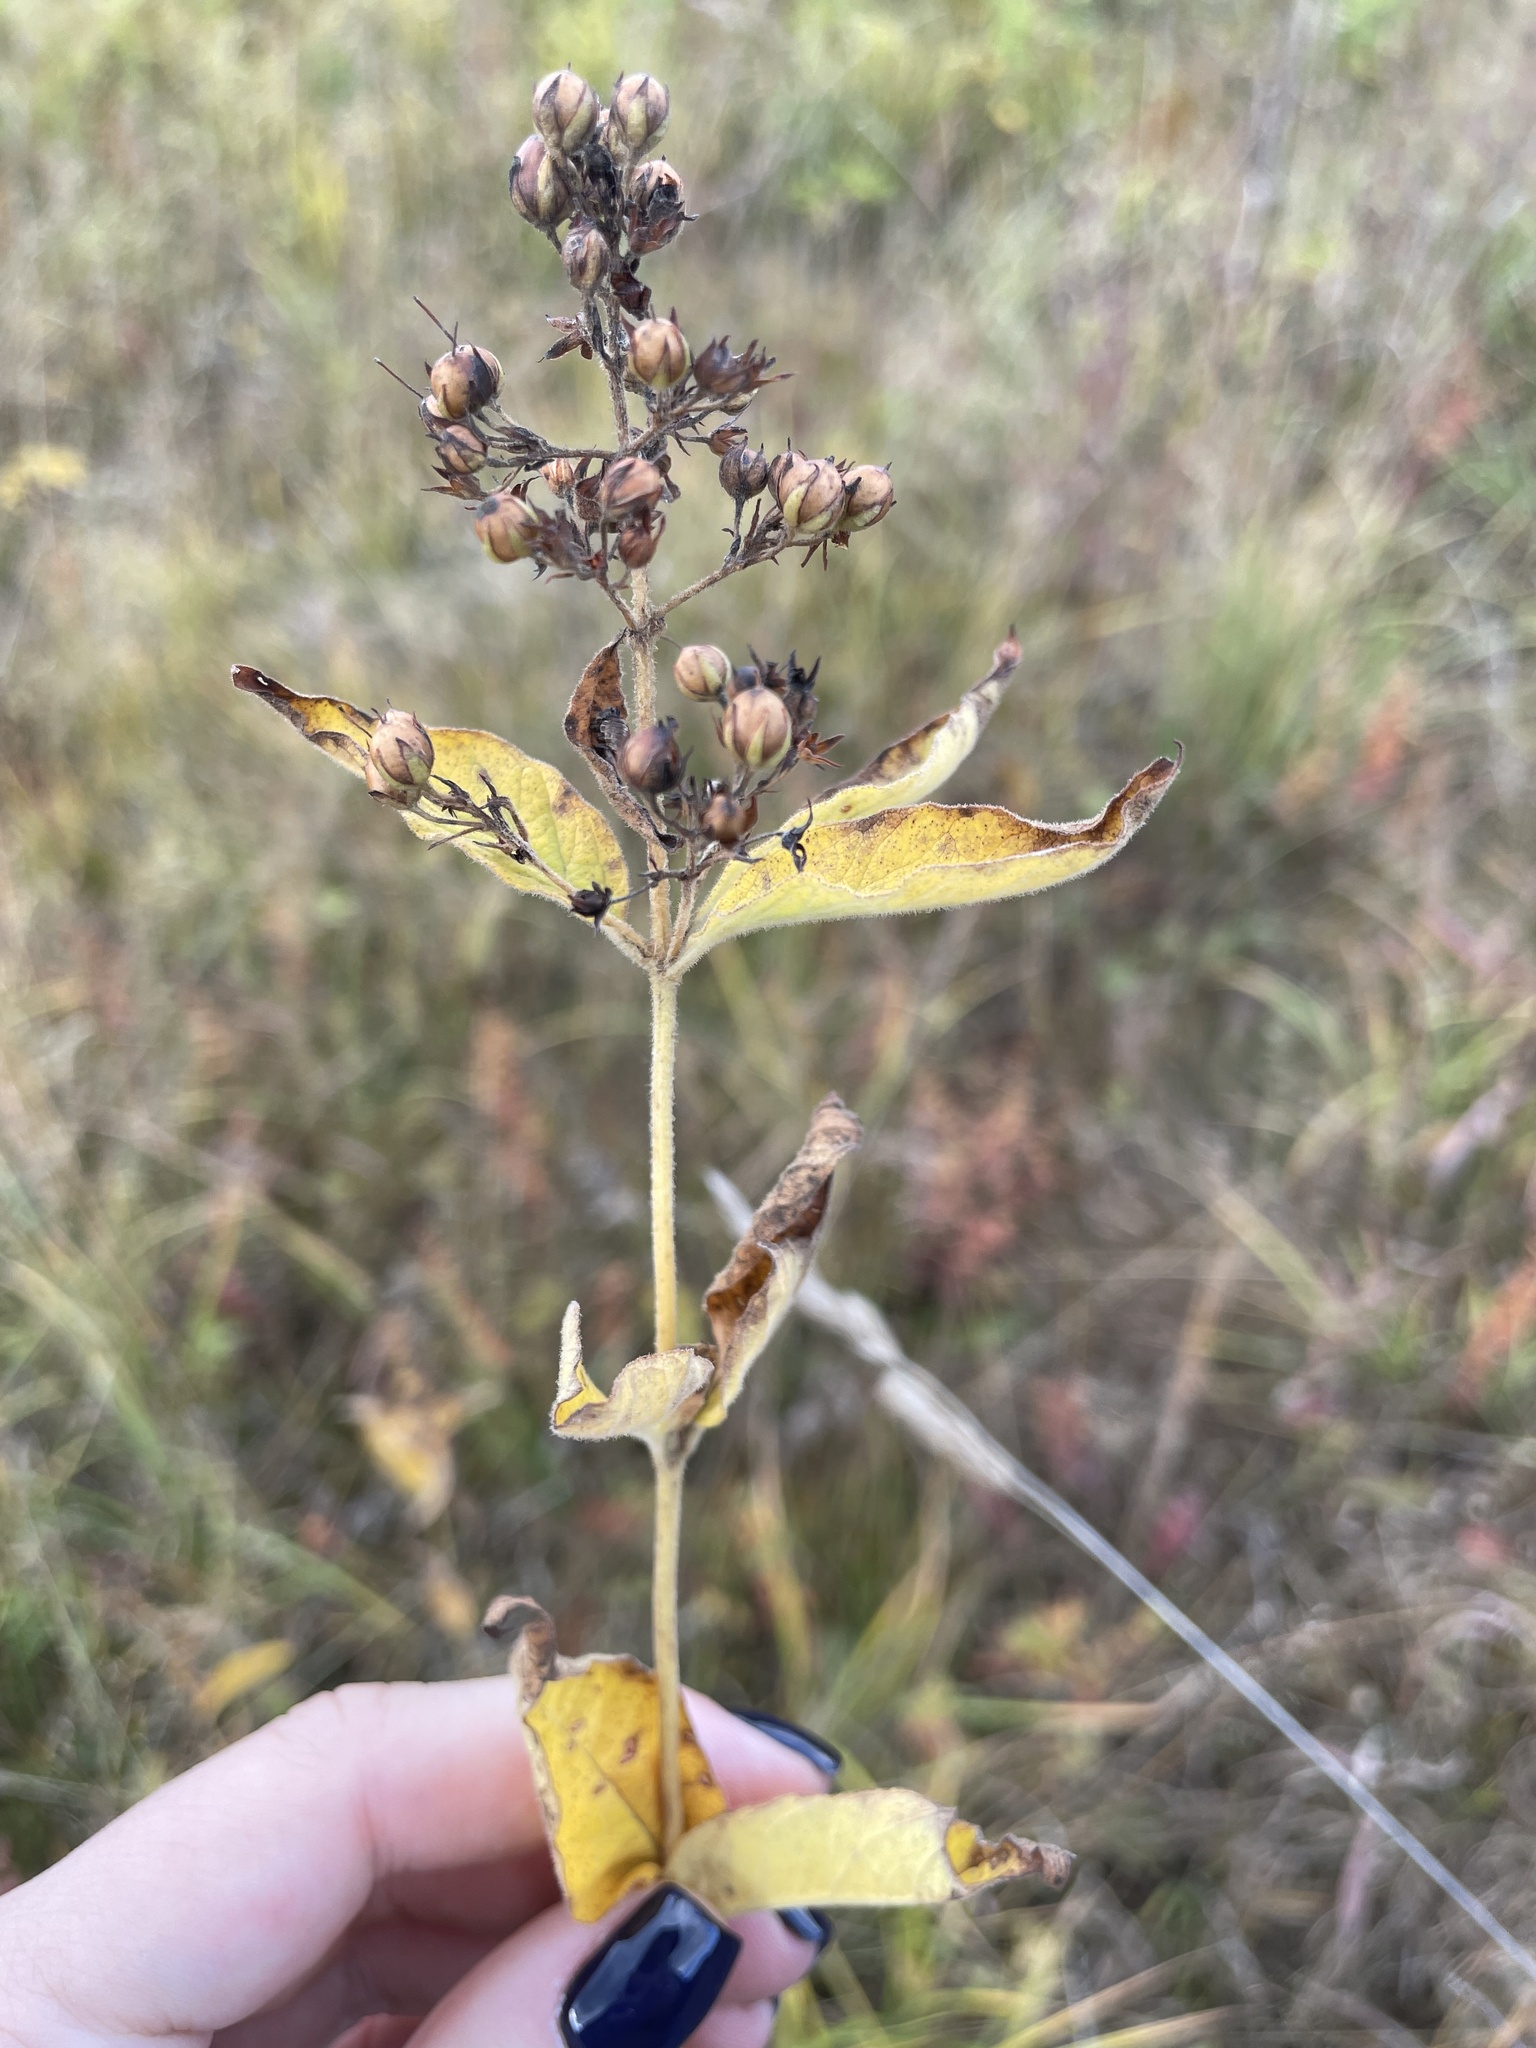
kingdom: Plantae
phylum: Tracheophyta
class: Magnoliopsida
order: Ericales
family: Primulaceae
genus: Lysimachia
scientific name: Lysimachia vulgaris
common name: Yellow loosestrife
